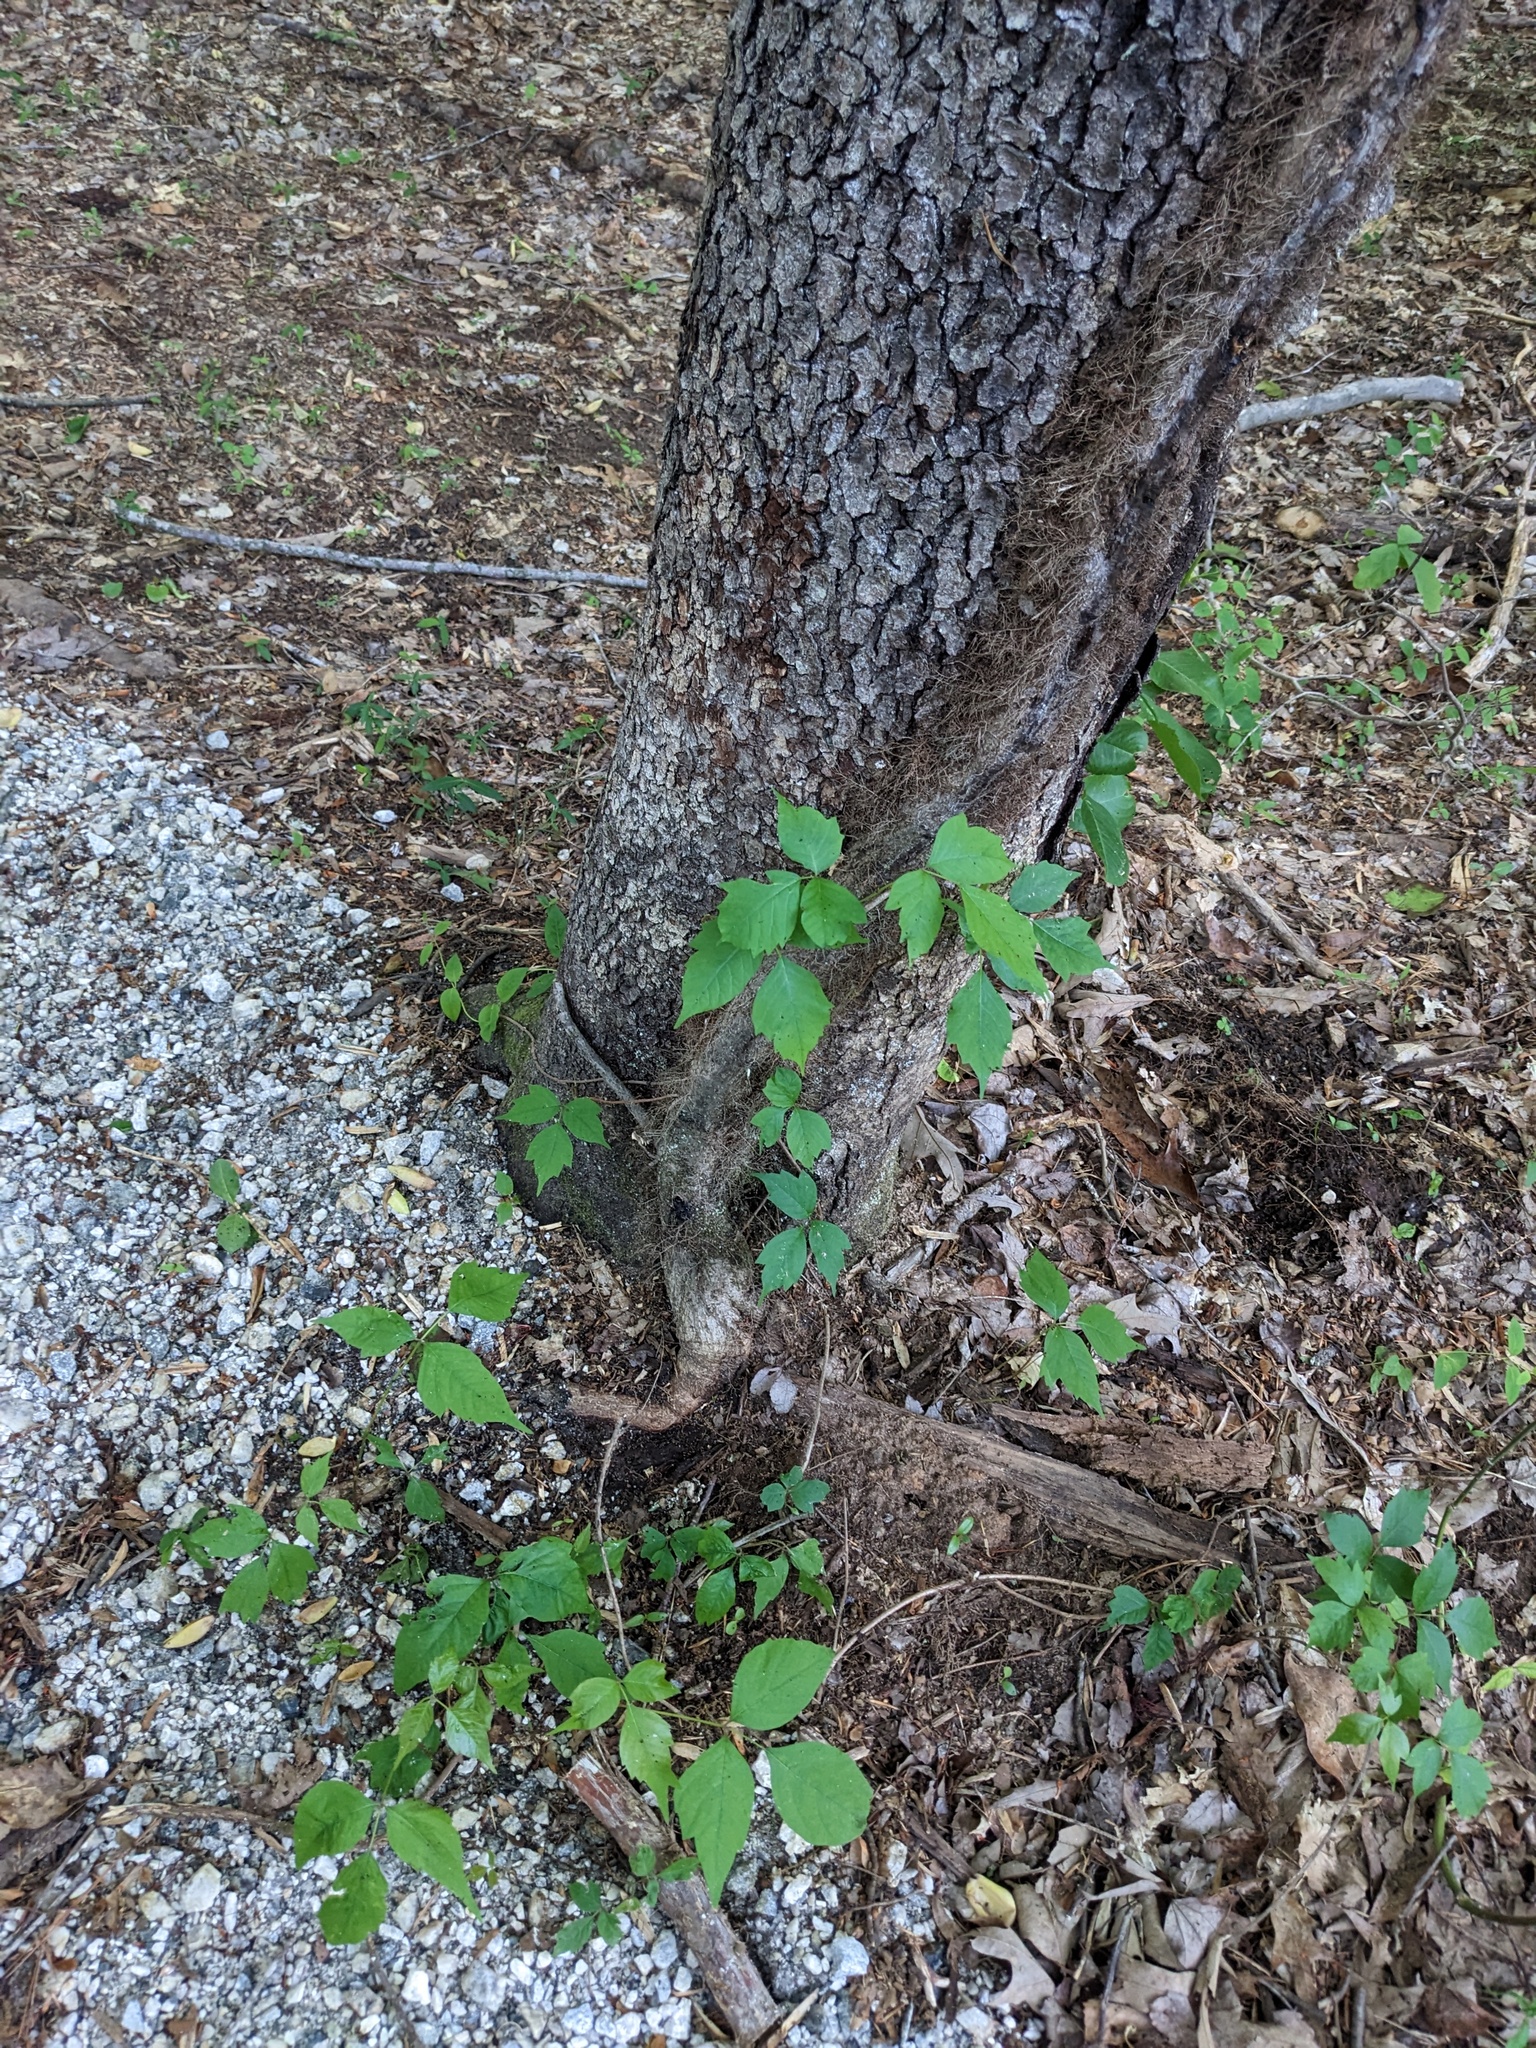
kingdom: Plantae
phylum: Tracheophyta
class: Magnoliopsida
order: Sapindales
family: Anacardiaceae
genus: Toxicodendron
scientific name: Toxicodendron radicans
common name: Poison ivy
